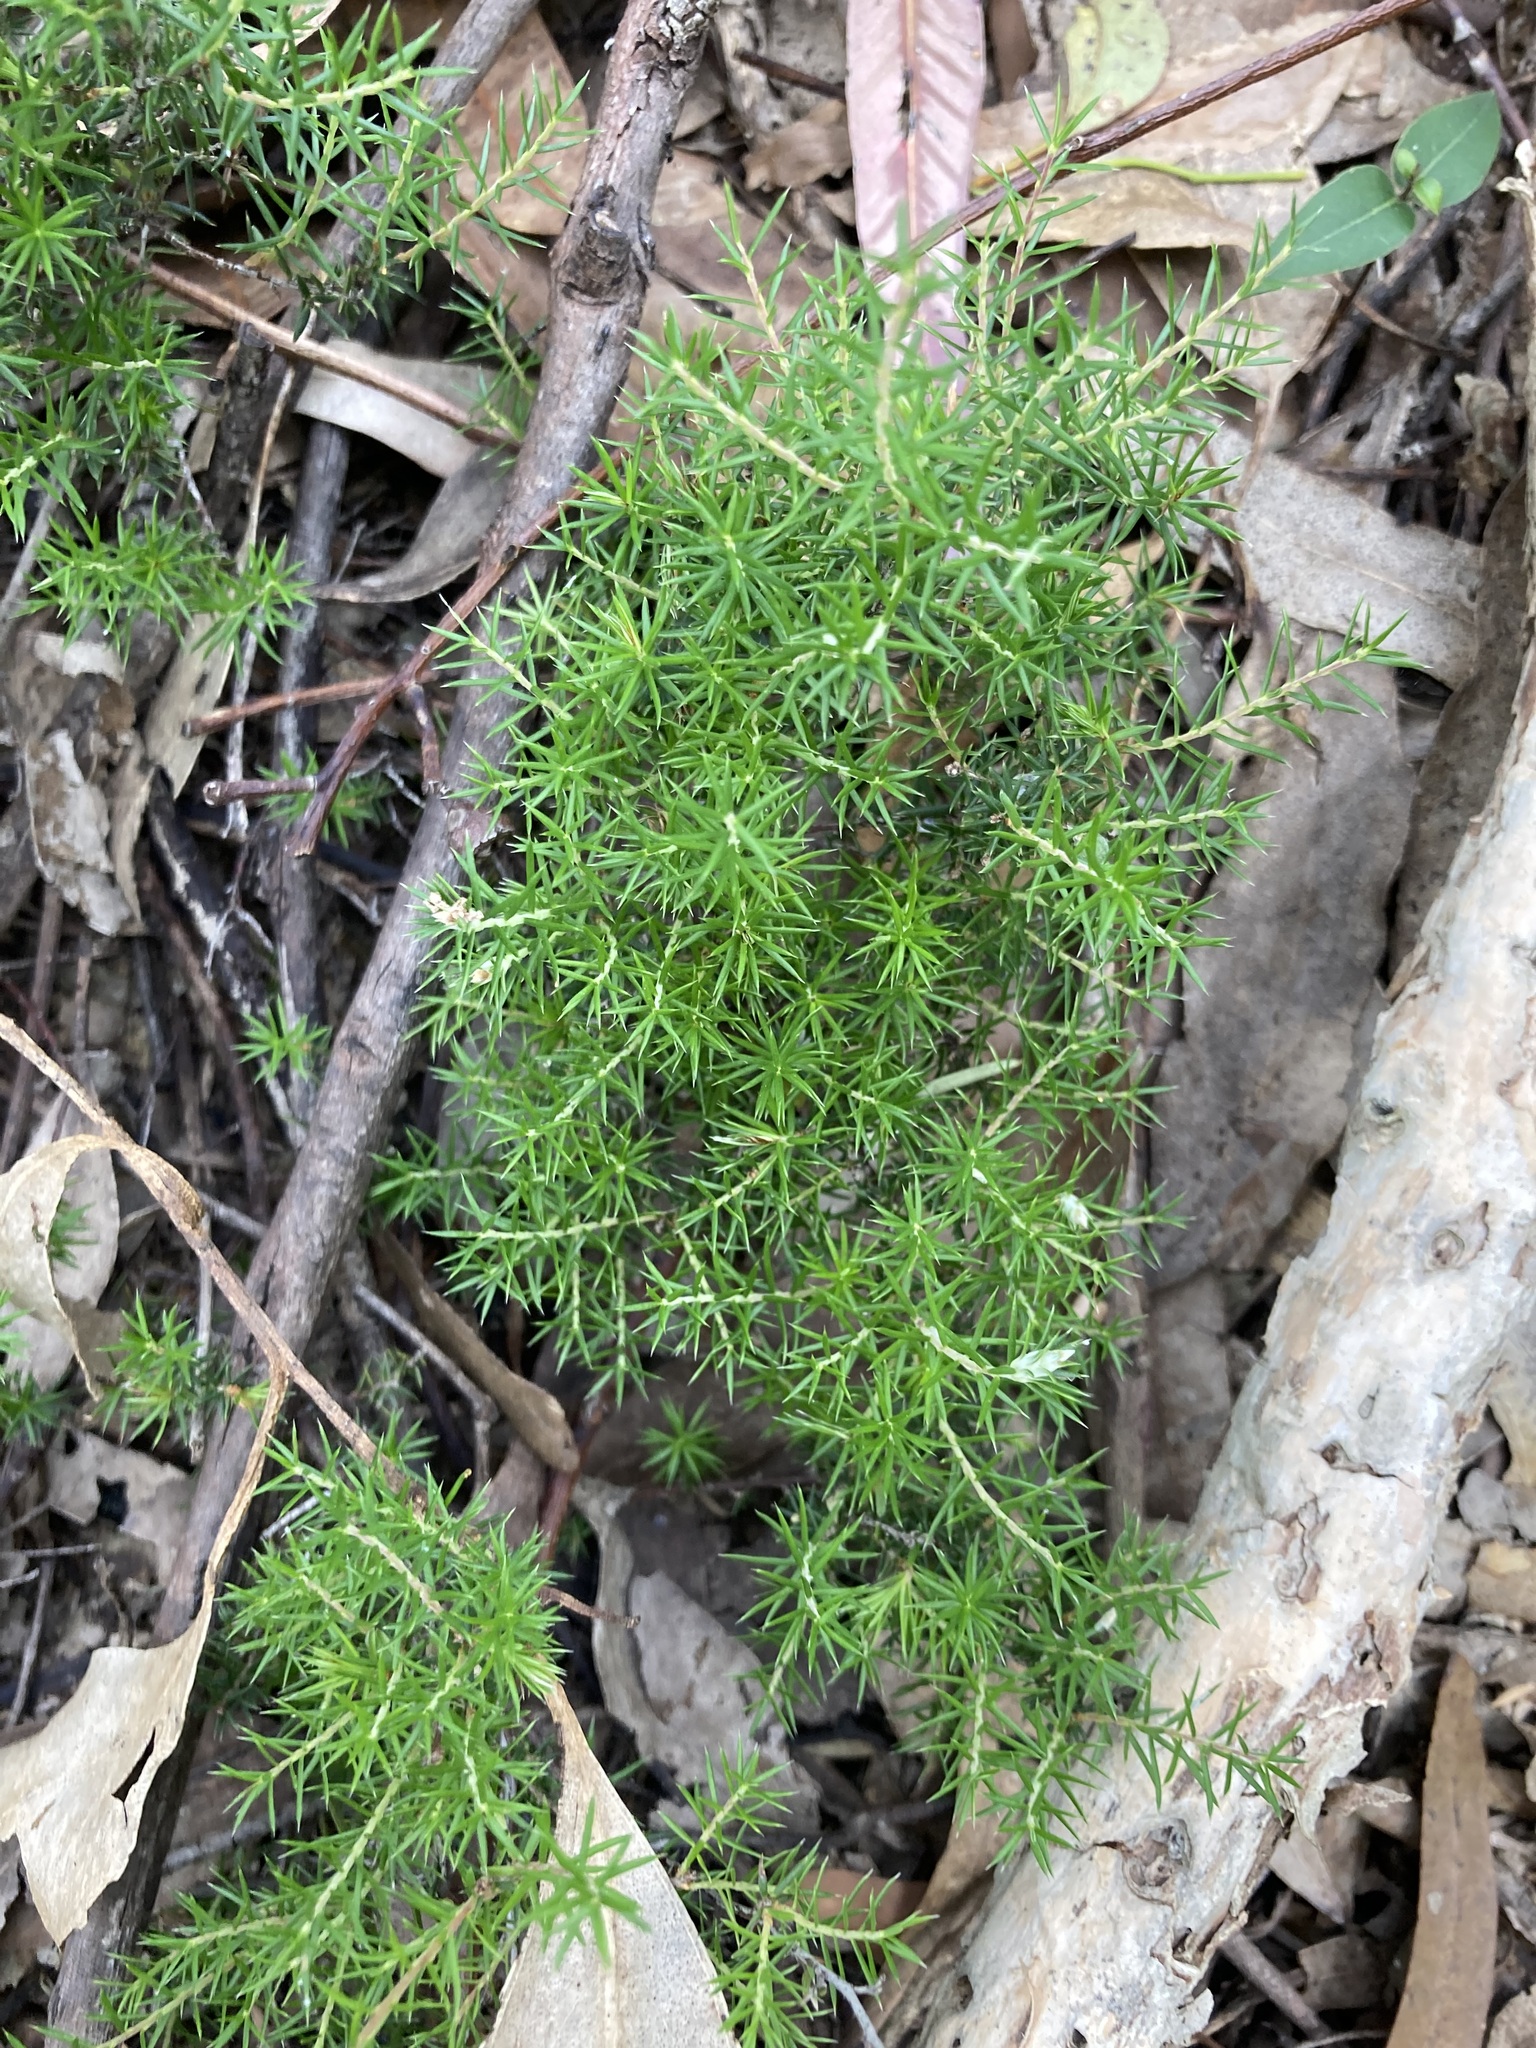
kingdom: Plantae
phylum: Tracheophyta
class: Magnoliopsida
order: Ericales
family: Ericaceae
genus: Lissanthe
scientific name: Lissanthe strigosa
